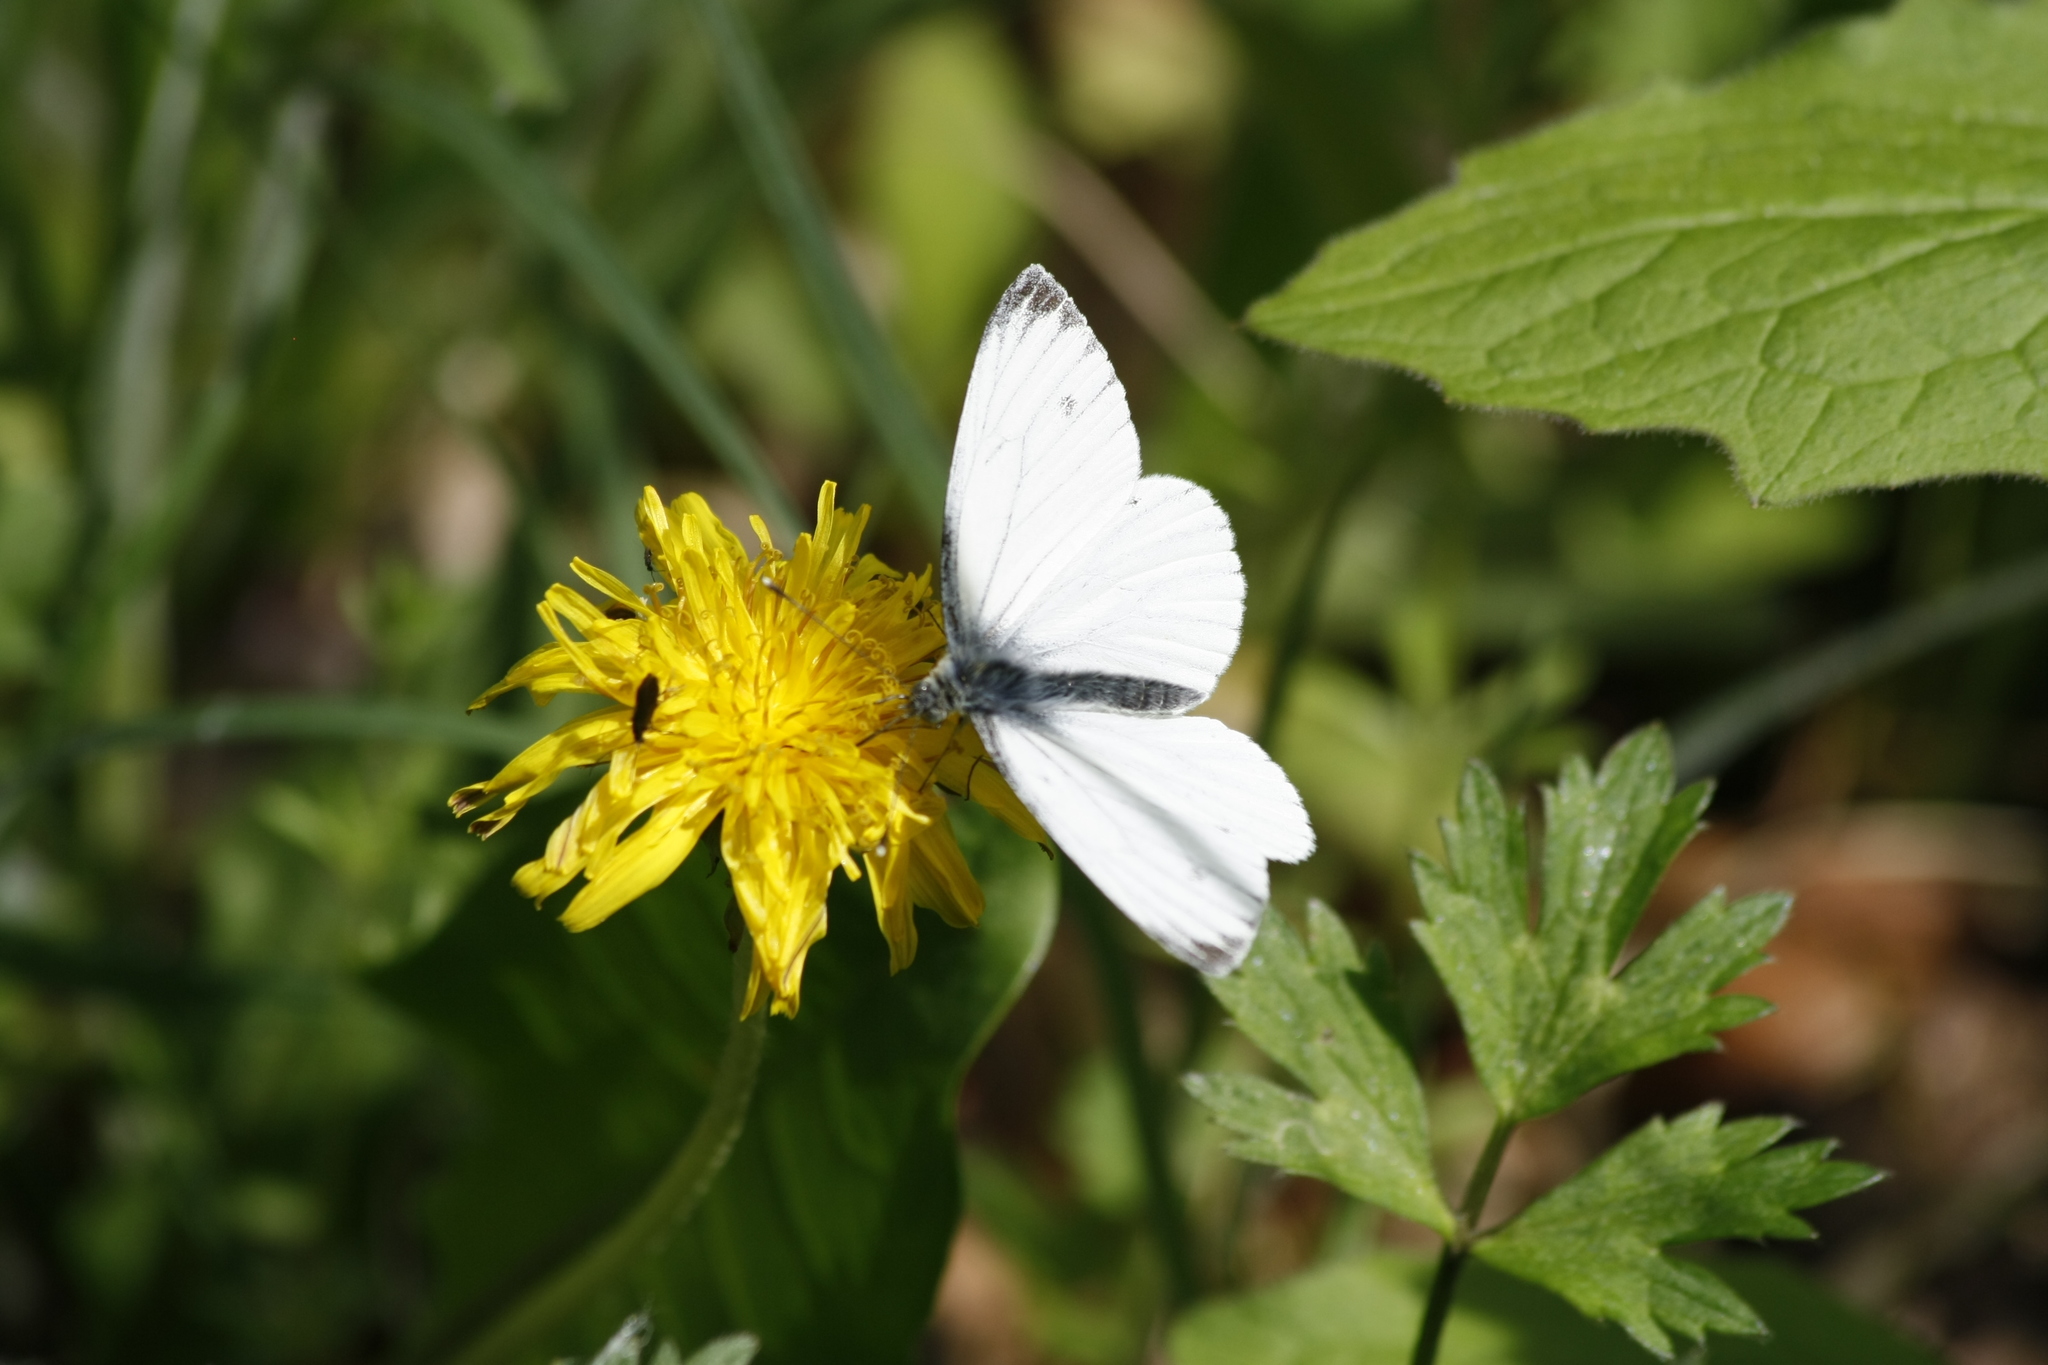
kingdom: Animalia
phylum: Arthropoda
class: Insecta
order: Lepidoptera
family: Pieridae
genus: Pieris
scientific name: Pieris napi
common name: Green-veined white
